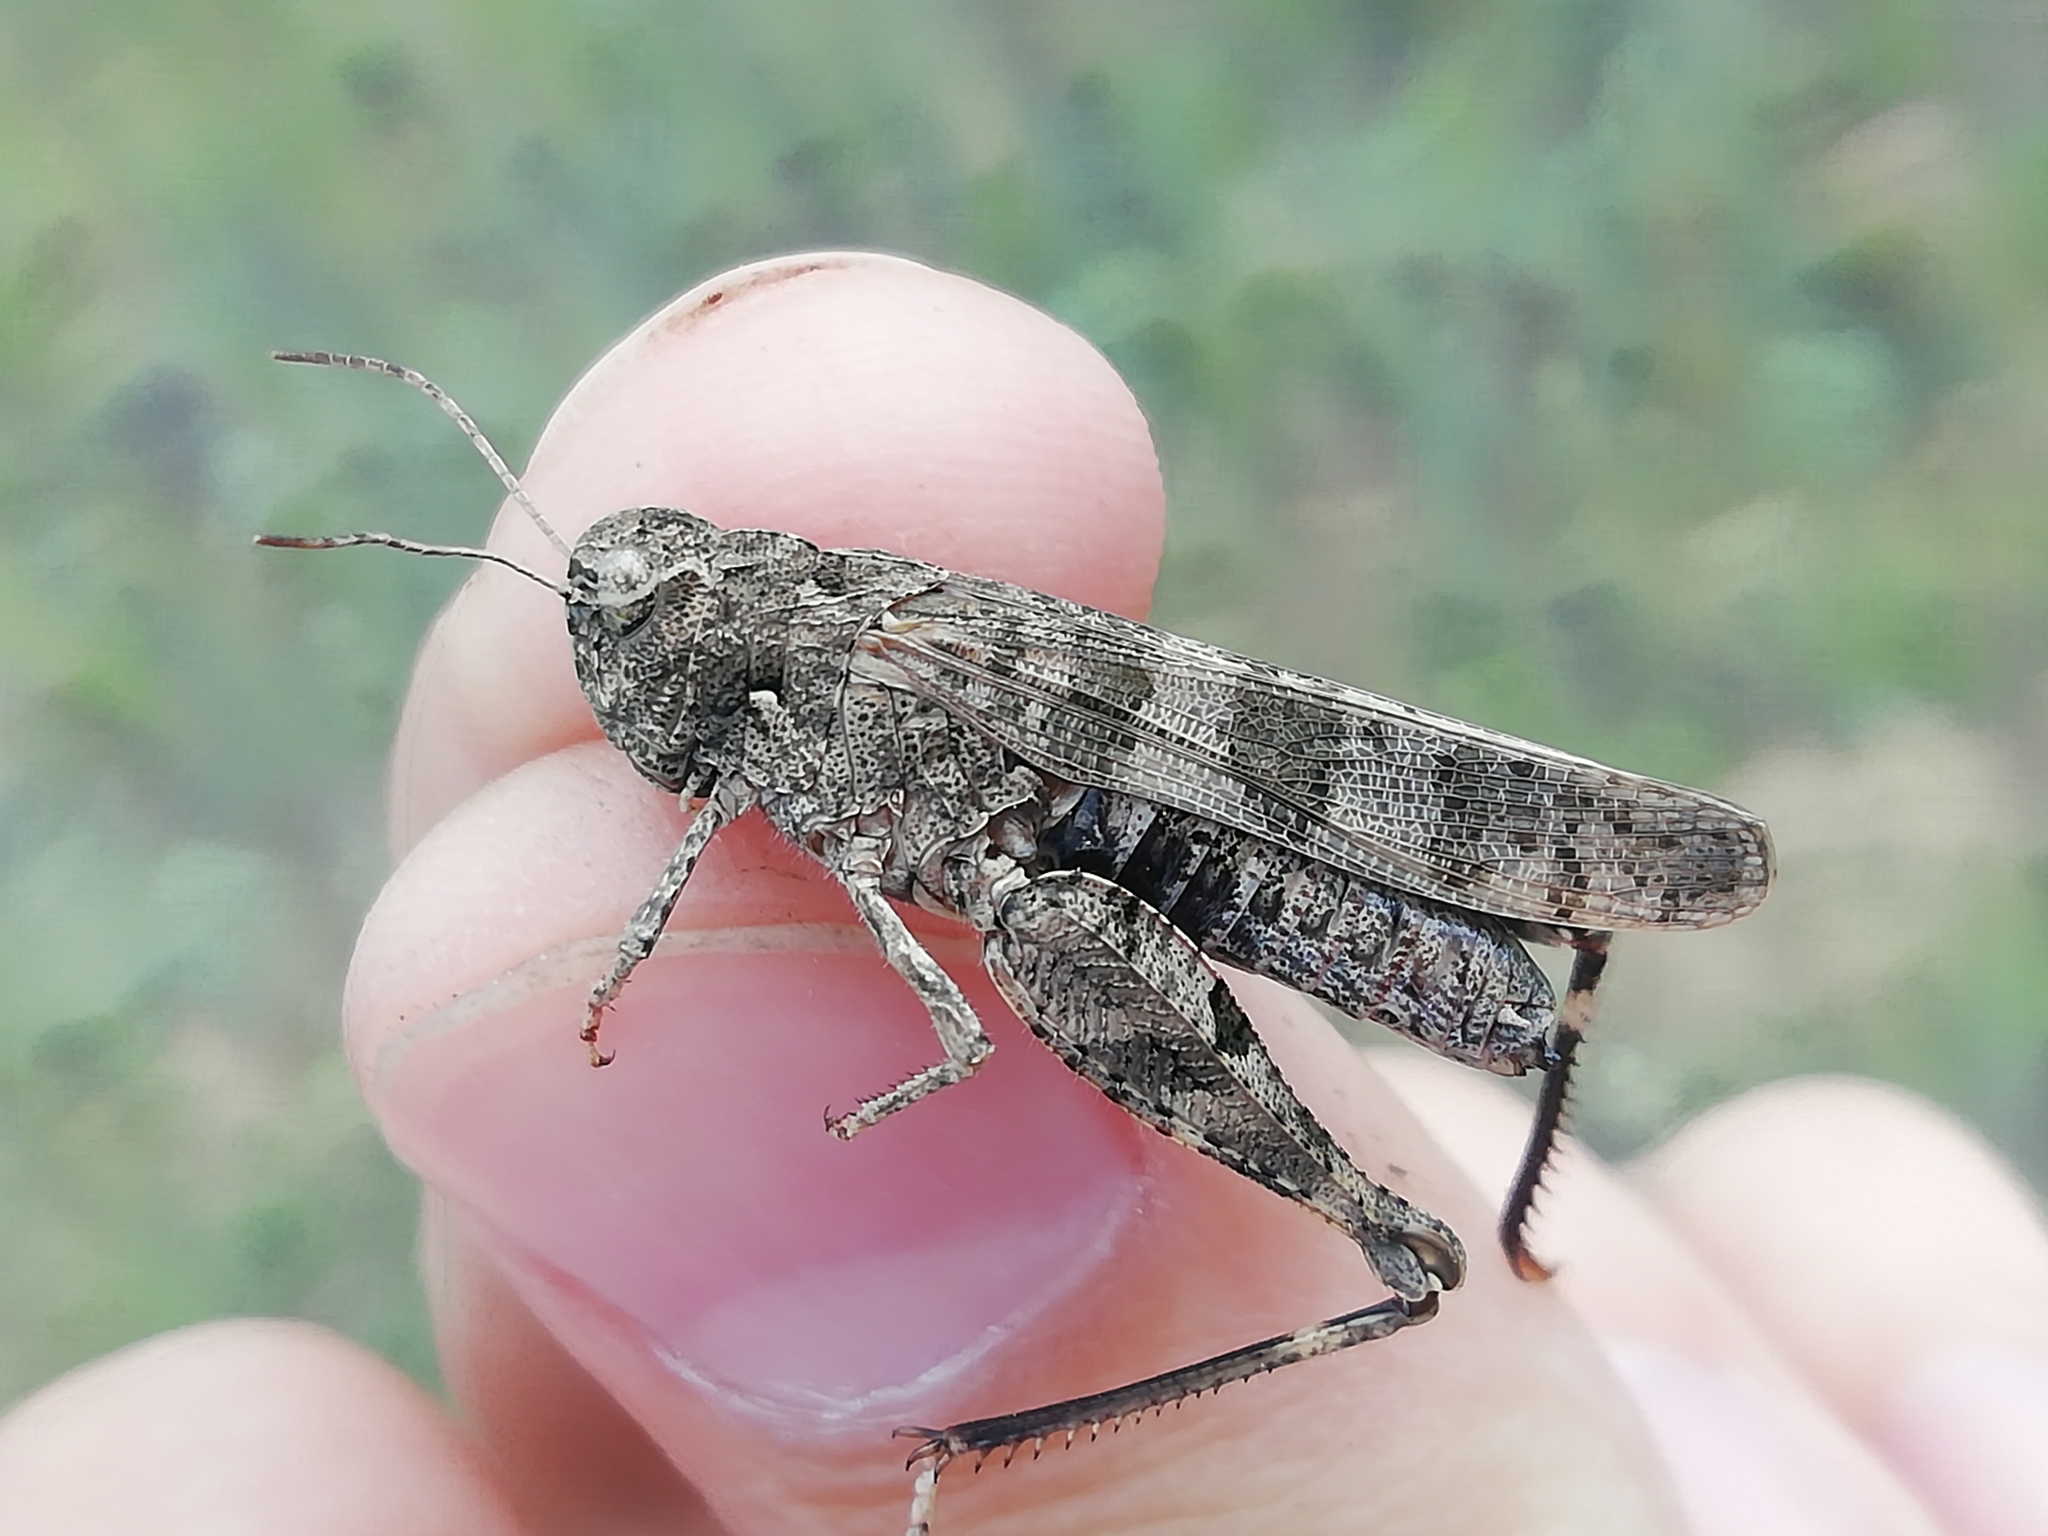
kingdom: Animalia
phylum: Arthropoda
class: Insecta
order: Orthoptera
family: Acrididae
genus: Celes
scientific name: Celes variabilis
